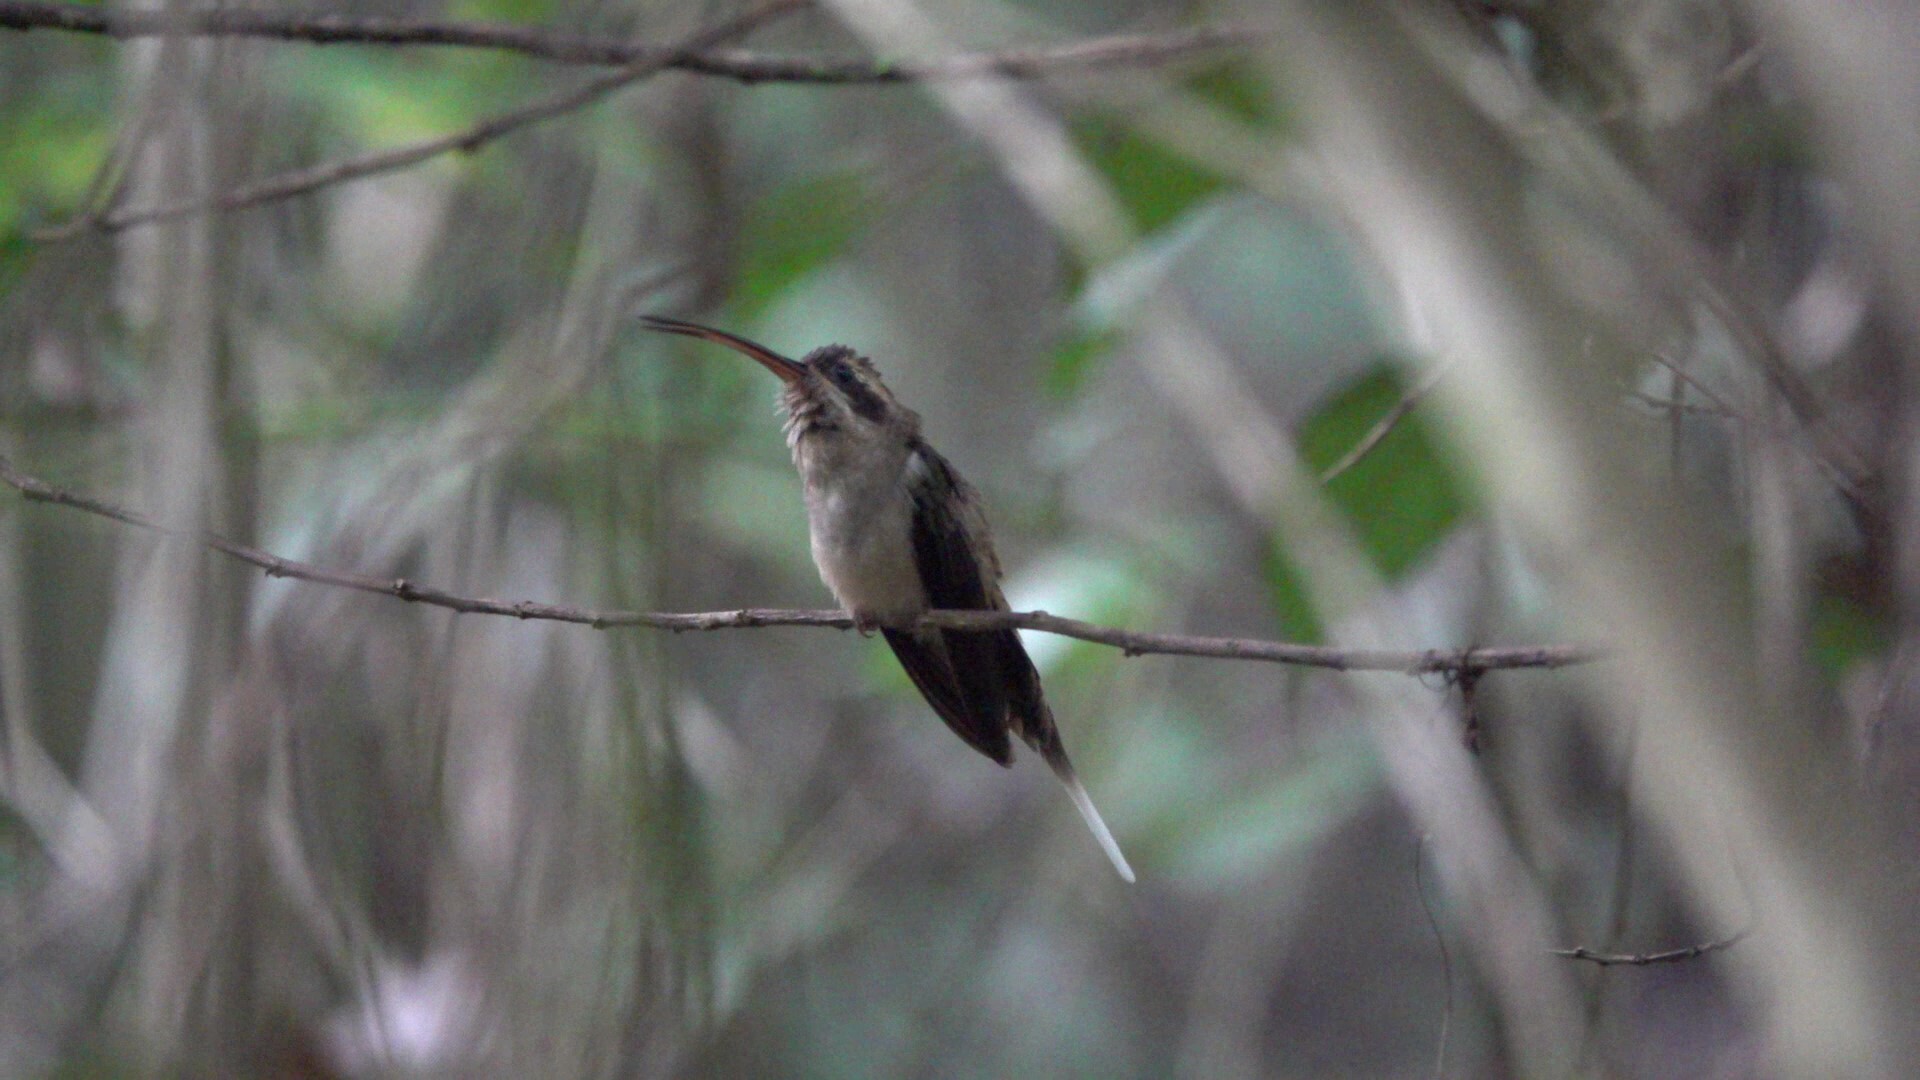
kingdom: Animalia
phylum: Chordata
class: Aves
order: Apodiformes
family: Trochilidae
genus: Phaethornis
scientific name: Phaethornis longirostris
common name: Long-billed hermit
